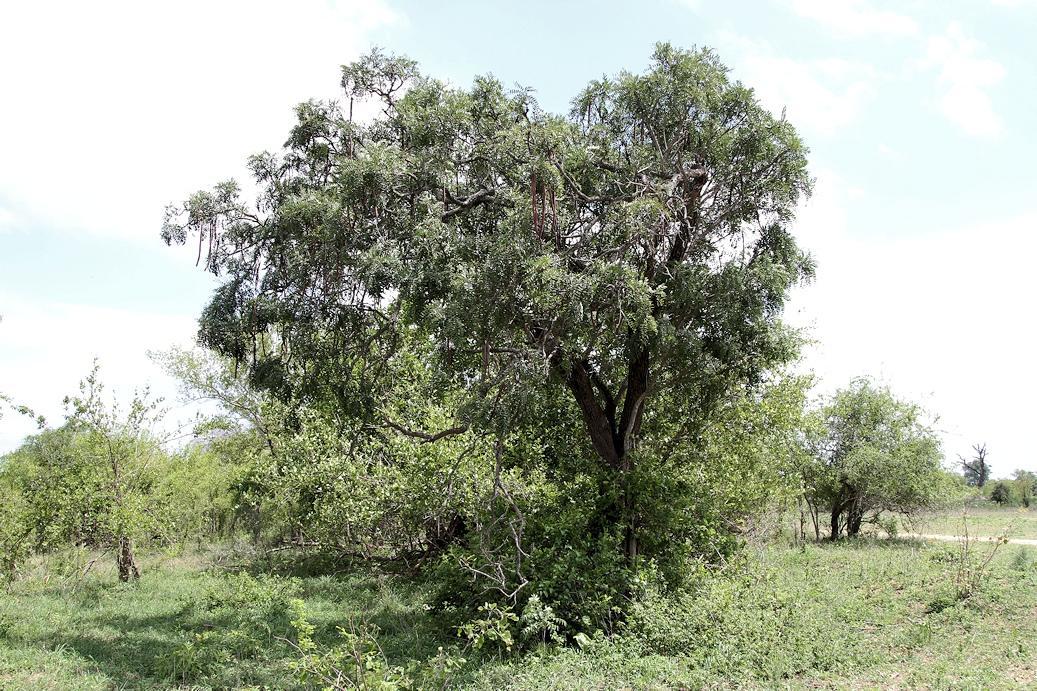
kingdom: Plantae
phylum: Tracheophyta
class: Magnoliopsida
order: Fabales
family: Fabaceae
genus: Cassia
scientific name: Cassia abbreviata
